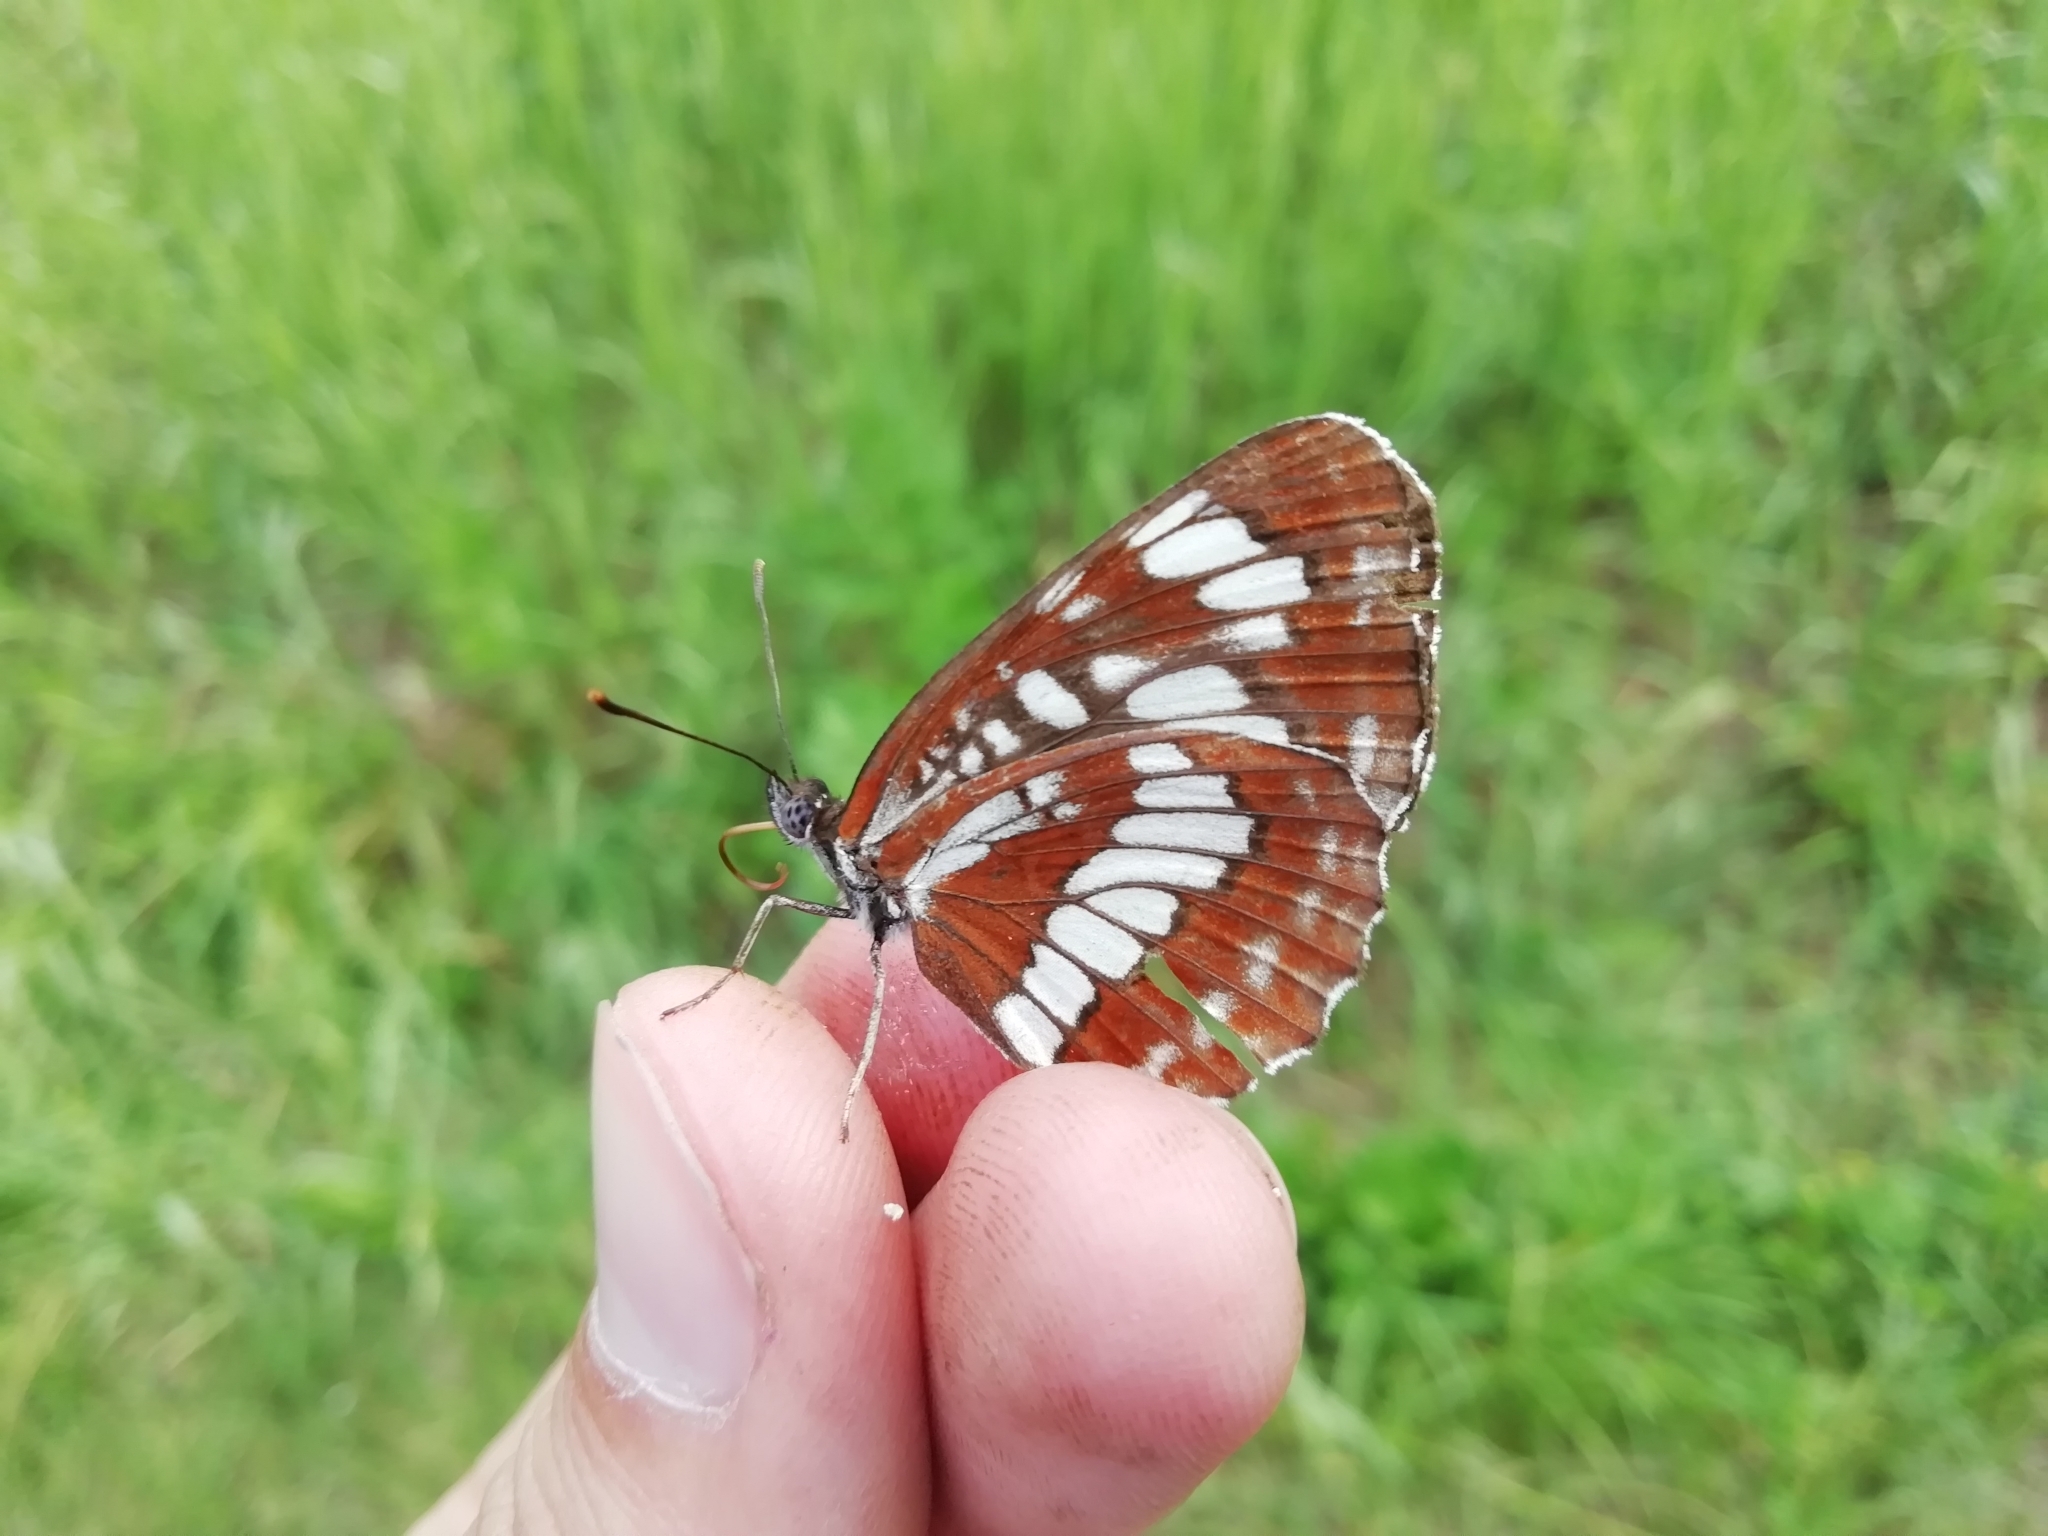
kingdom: Animalia
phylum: Arthropoda
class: Insecta
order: Lepidoptera
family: Nymphalidae
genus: Neptis
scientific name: Neptis rivularis
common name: Hungarian glider
